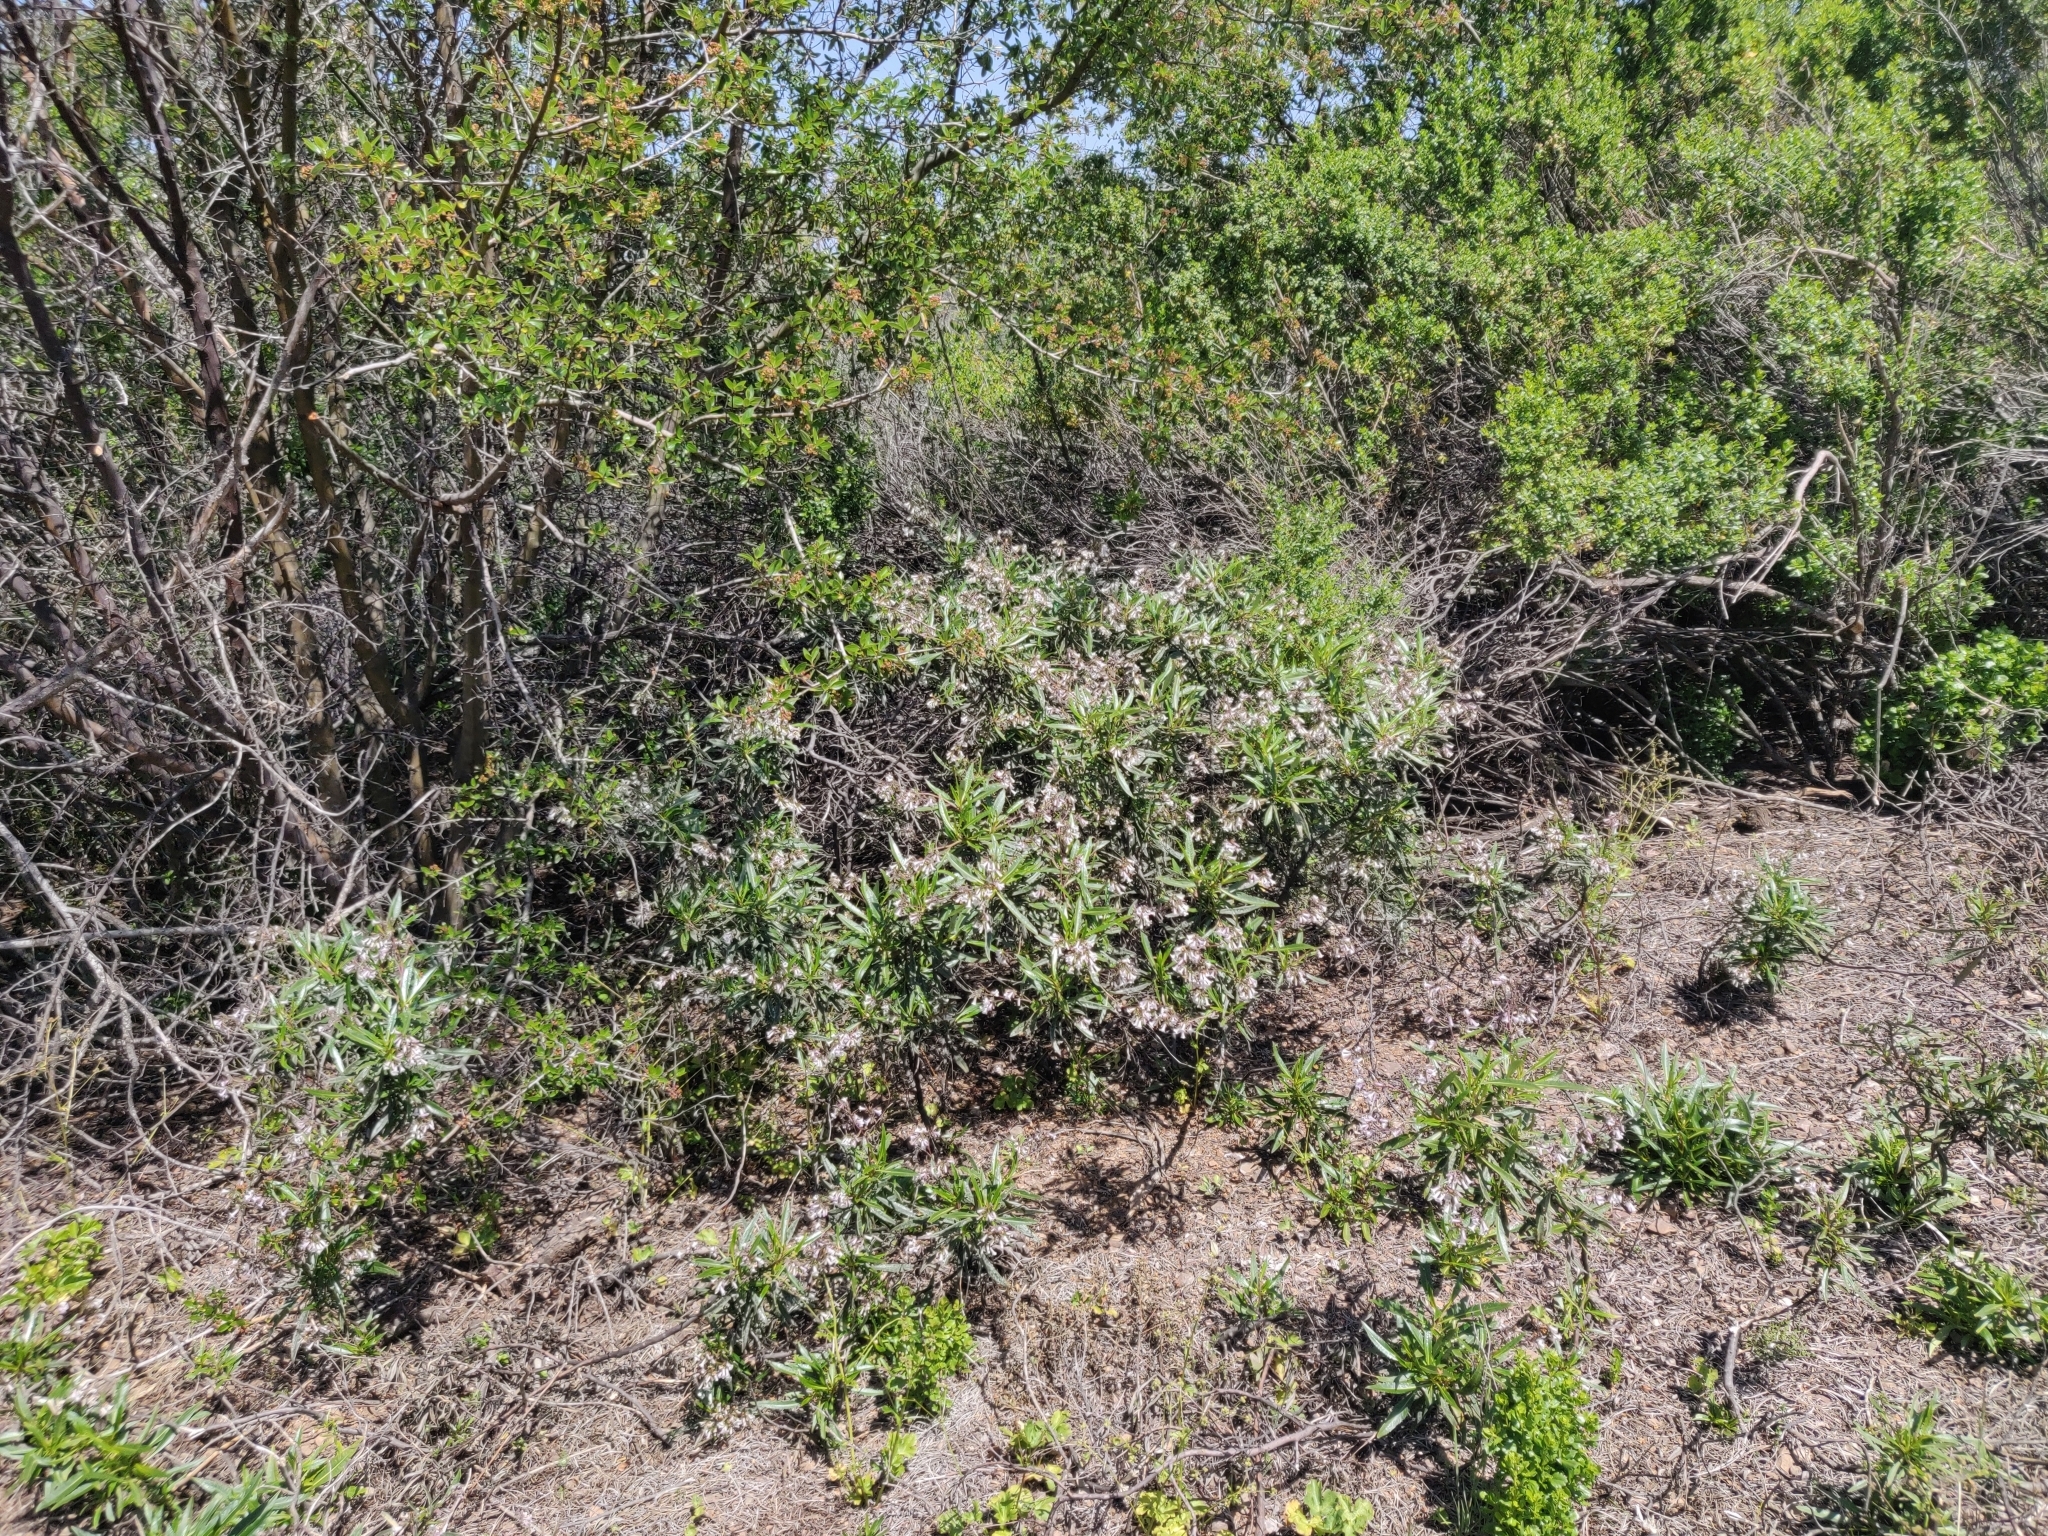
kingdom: Plantae
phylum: Tracheophyta
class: Magnoliopsida
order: Boraginales
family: Namaceae
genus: Eriodictyon
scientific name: Eriodictyon californicum
